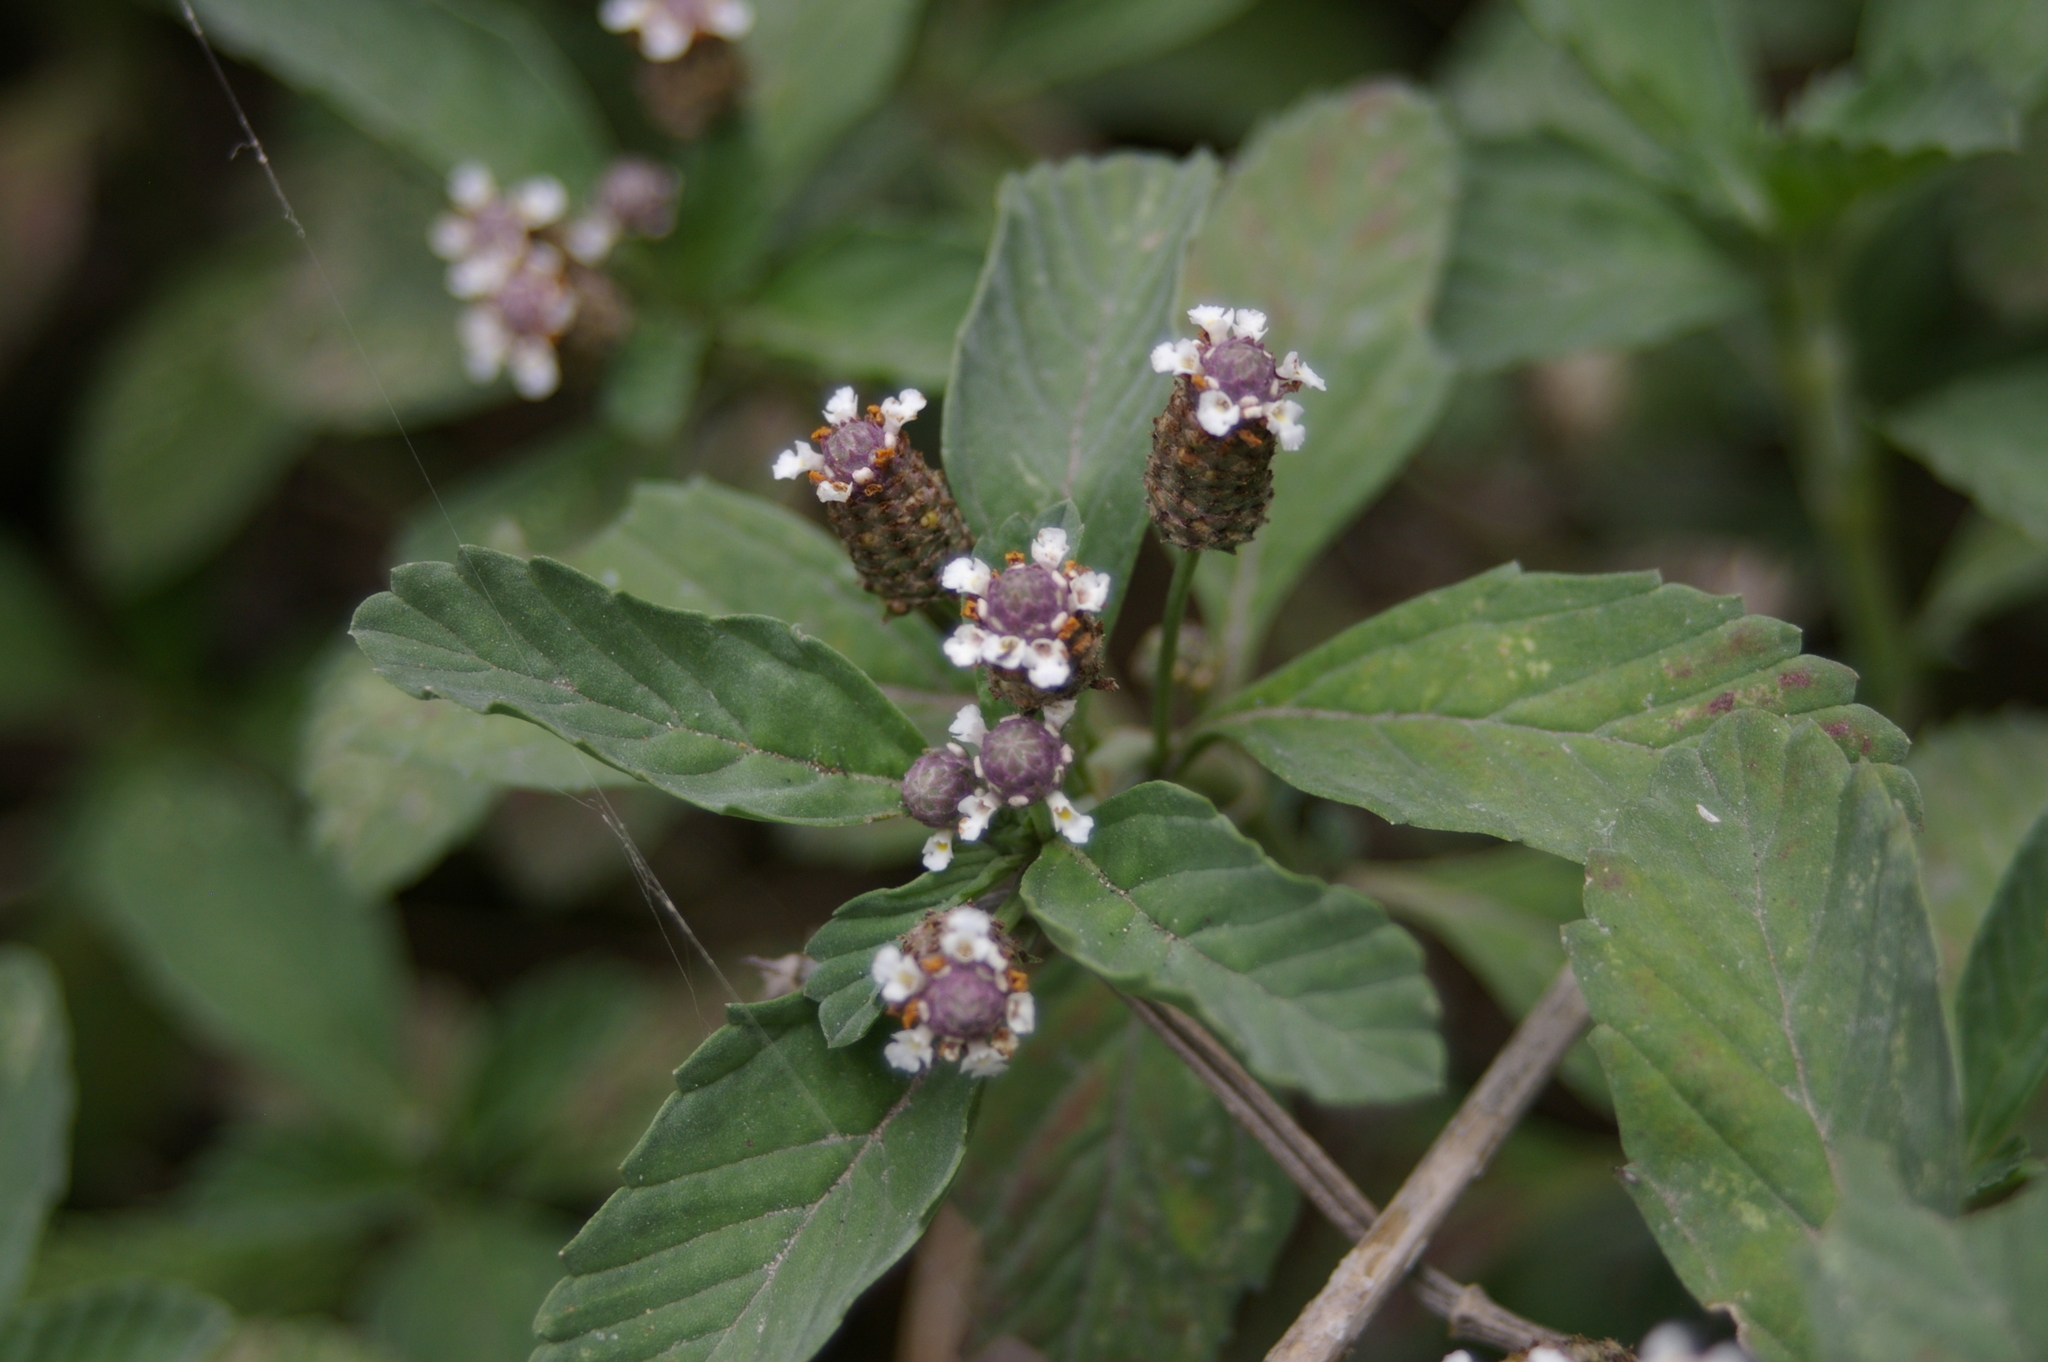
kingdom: Plantae
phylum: Tracheophyta
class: Magnoliopsida
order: Lamiales
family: Verbenaceae
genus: Phyla
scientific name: Phyla nodiflora
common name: Frogfruit
